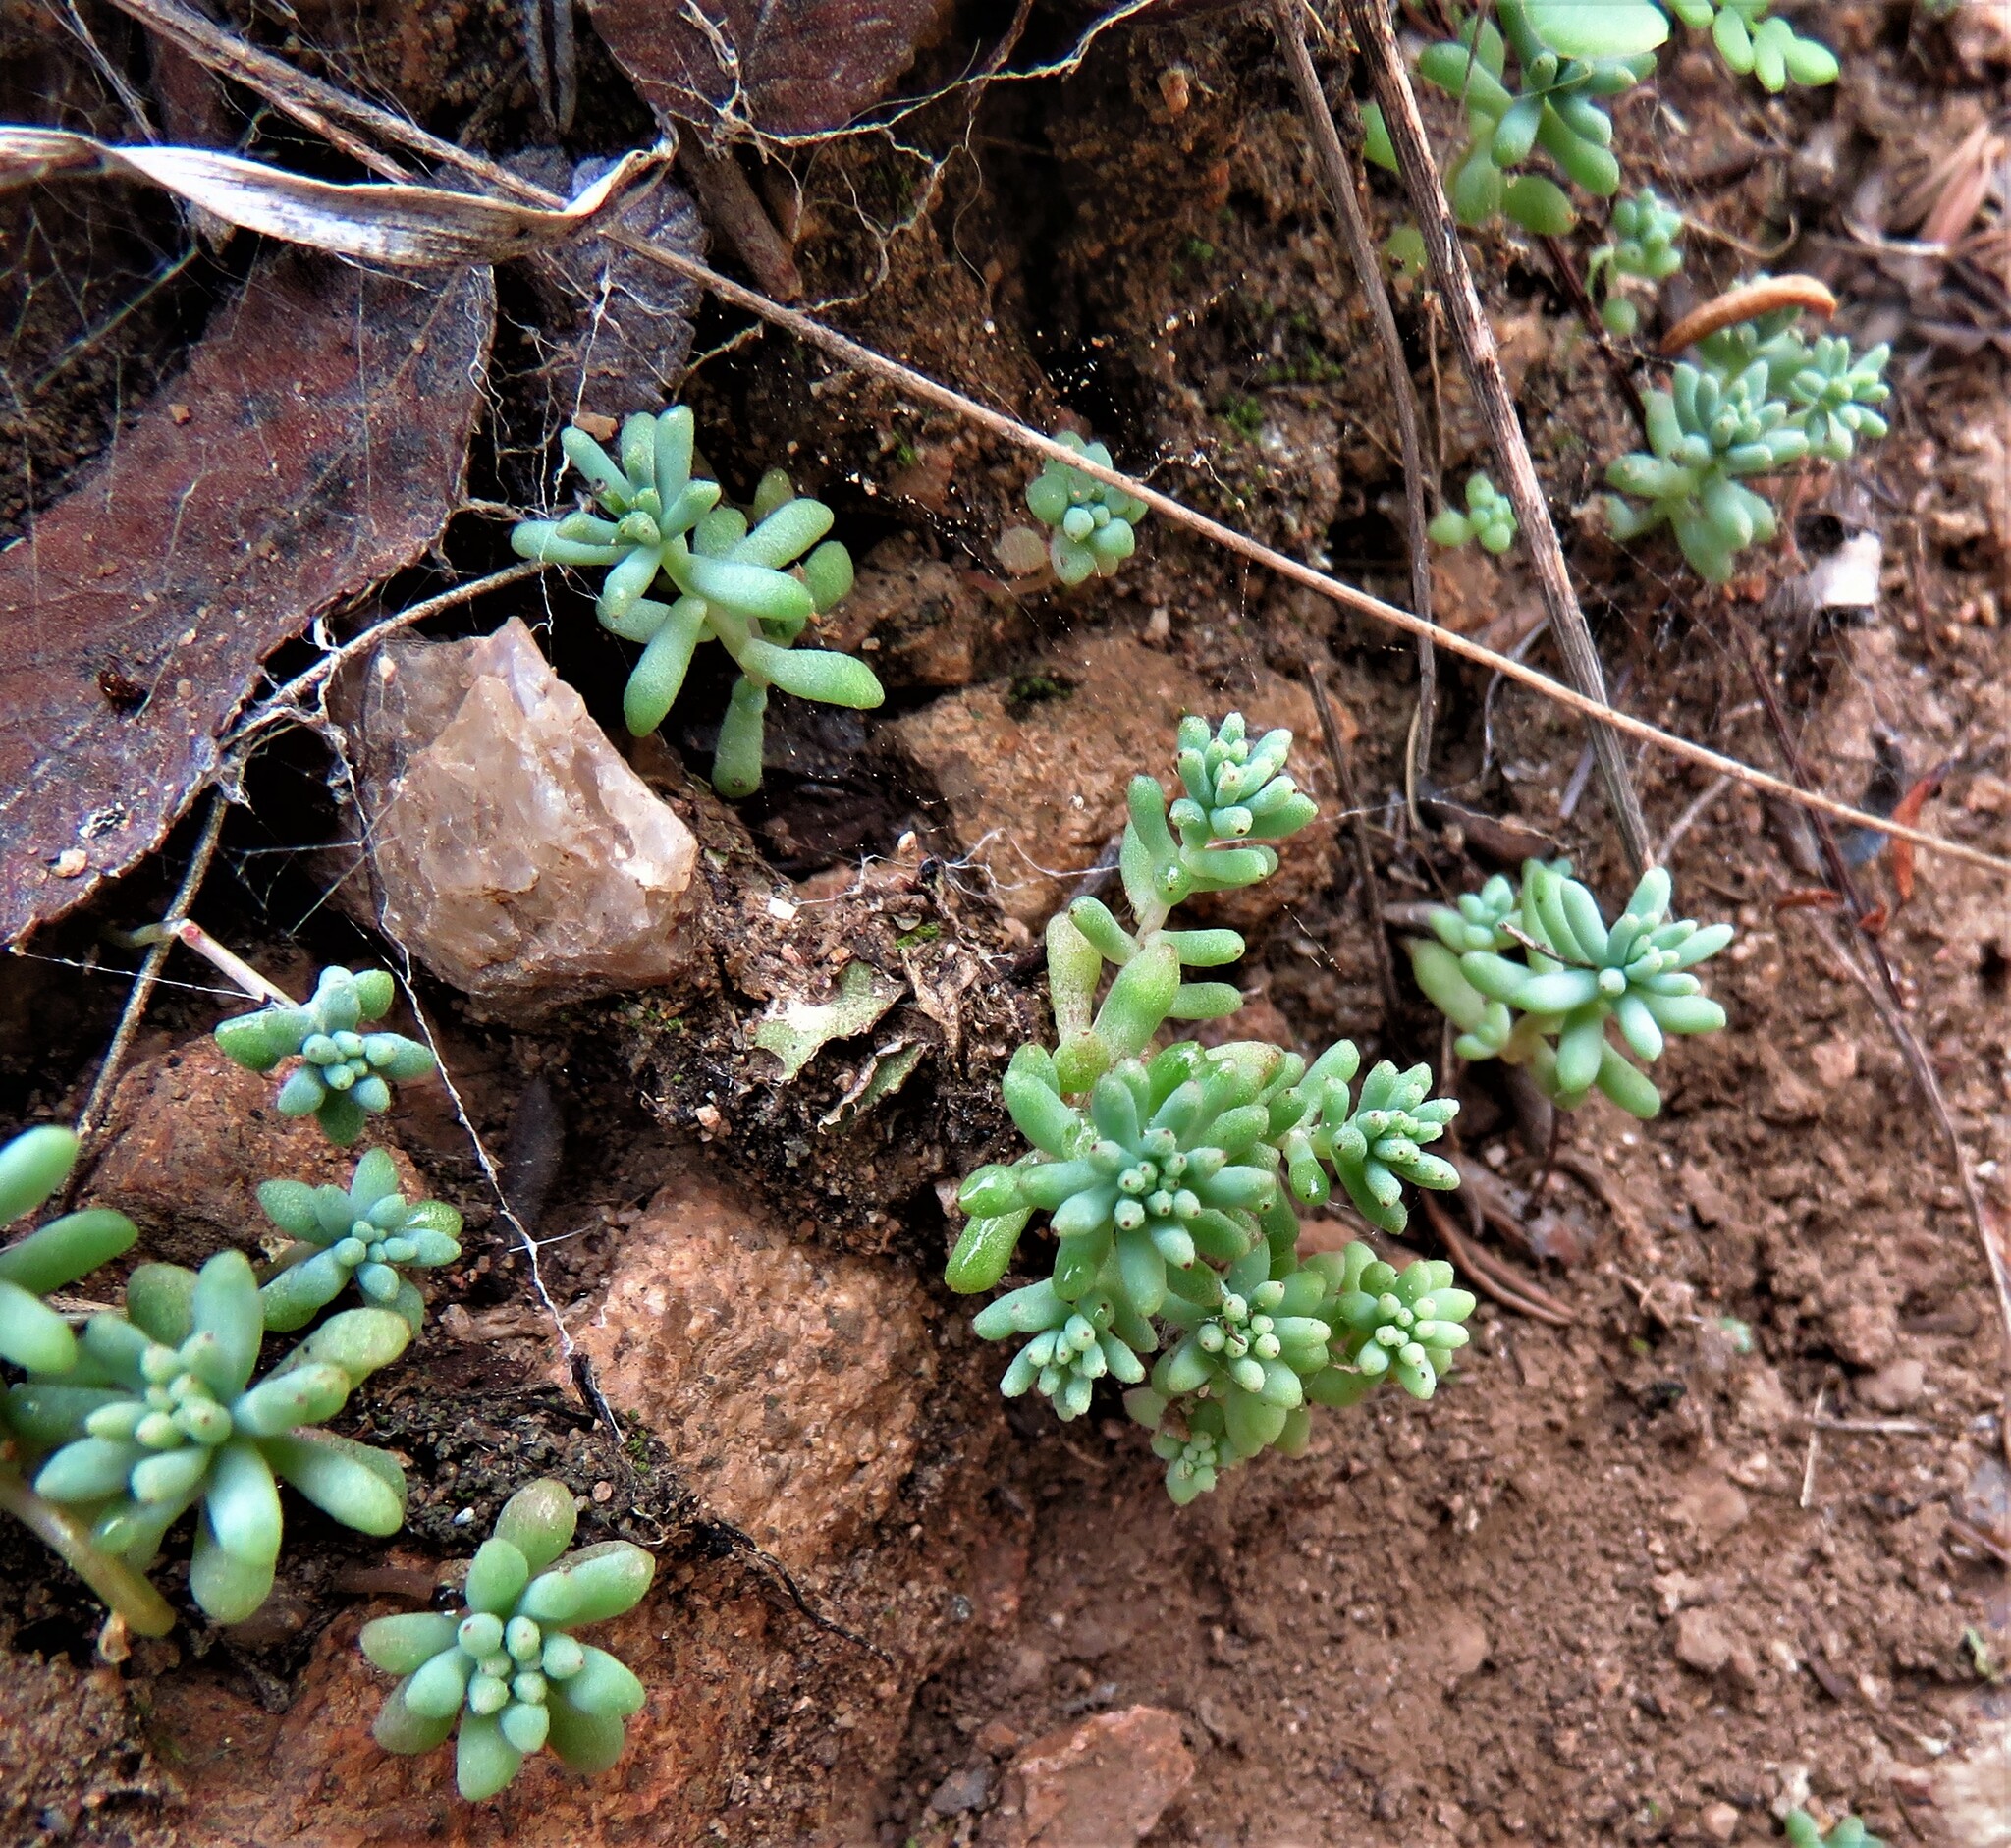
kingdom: Plantae
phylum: Tracheophyta
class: Magnoliopsida
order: Saxifragales
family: Crassulaceae
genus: Sedum
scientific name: Sedum nuttallii
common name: Yellow stonecrop
